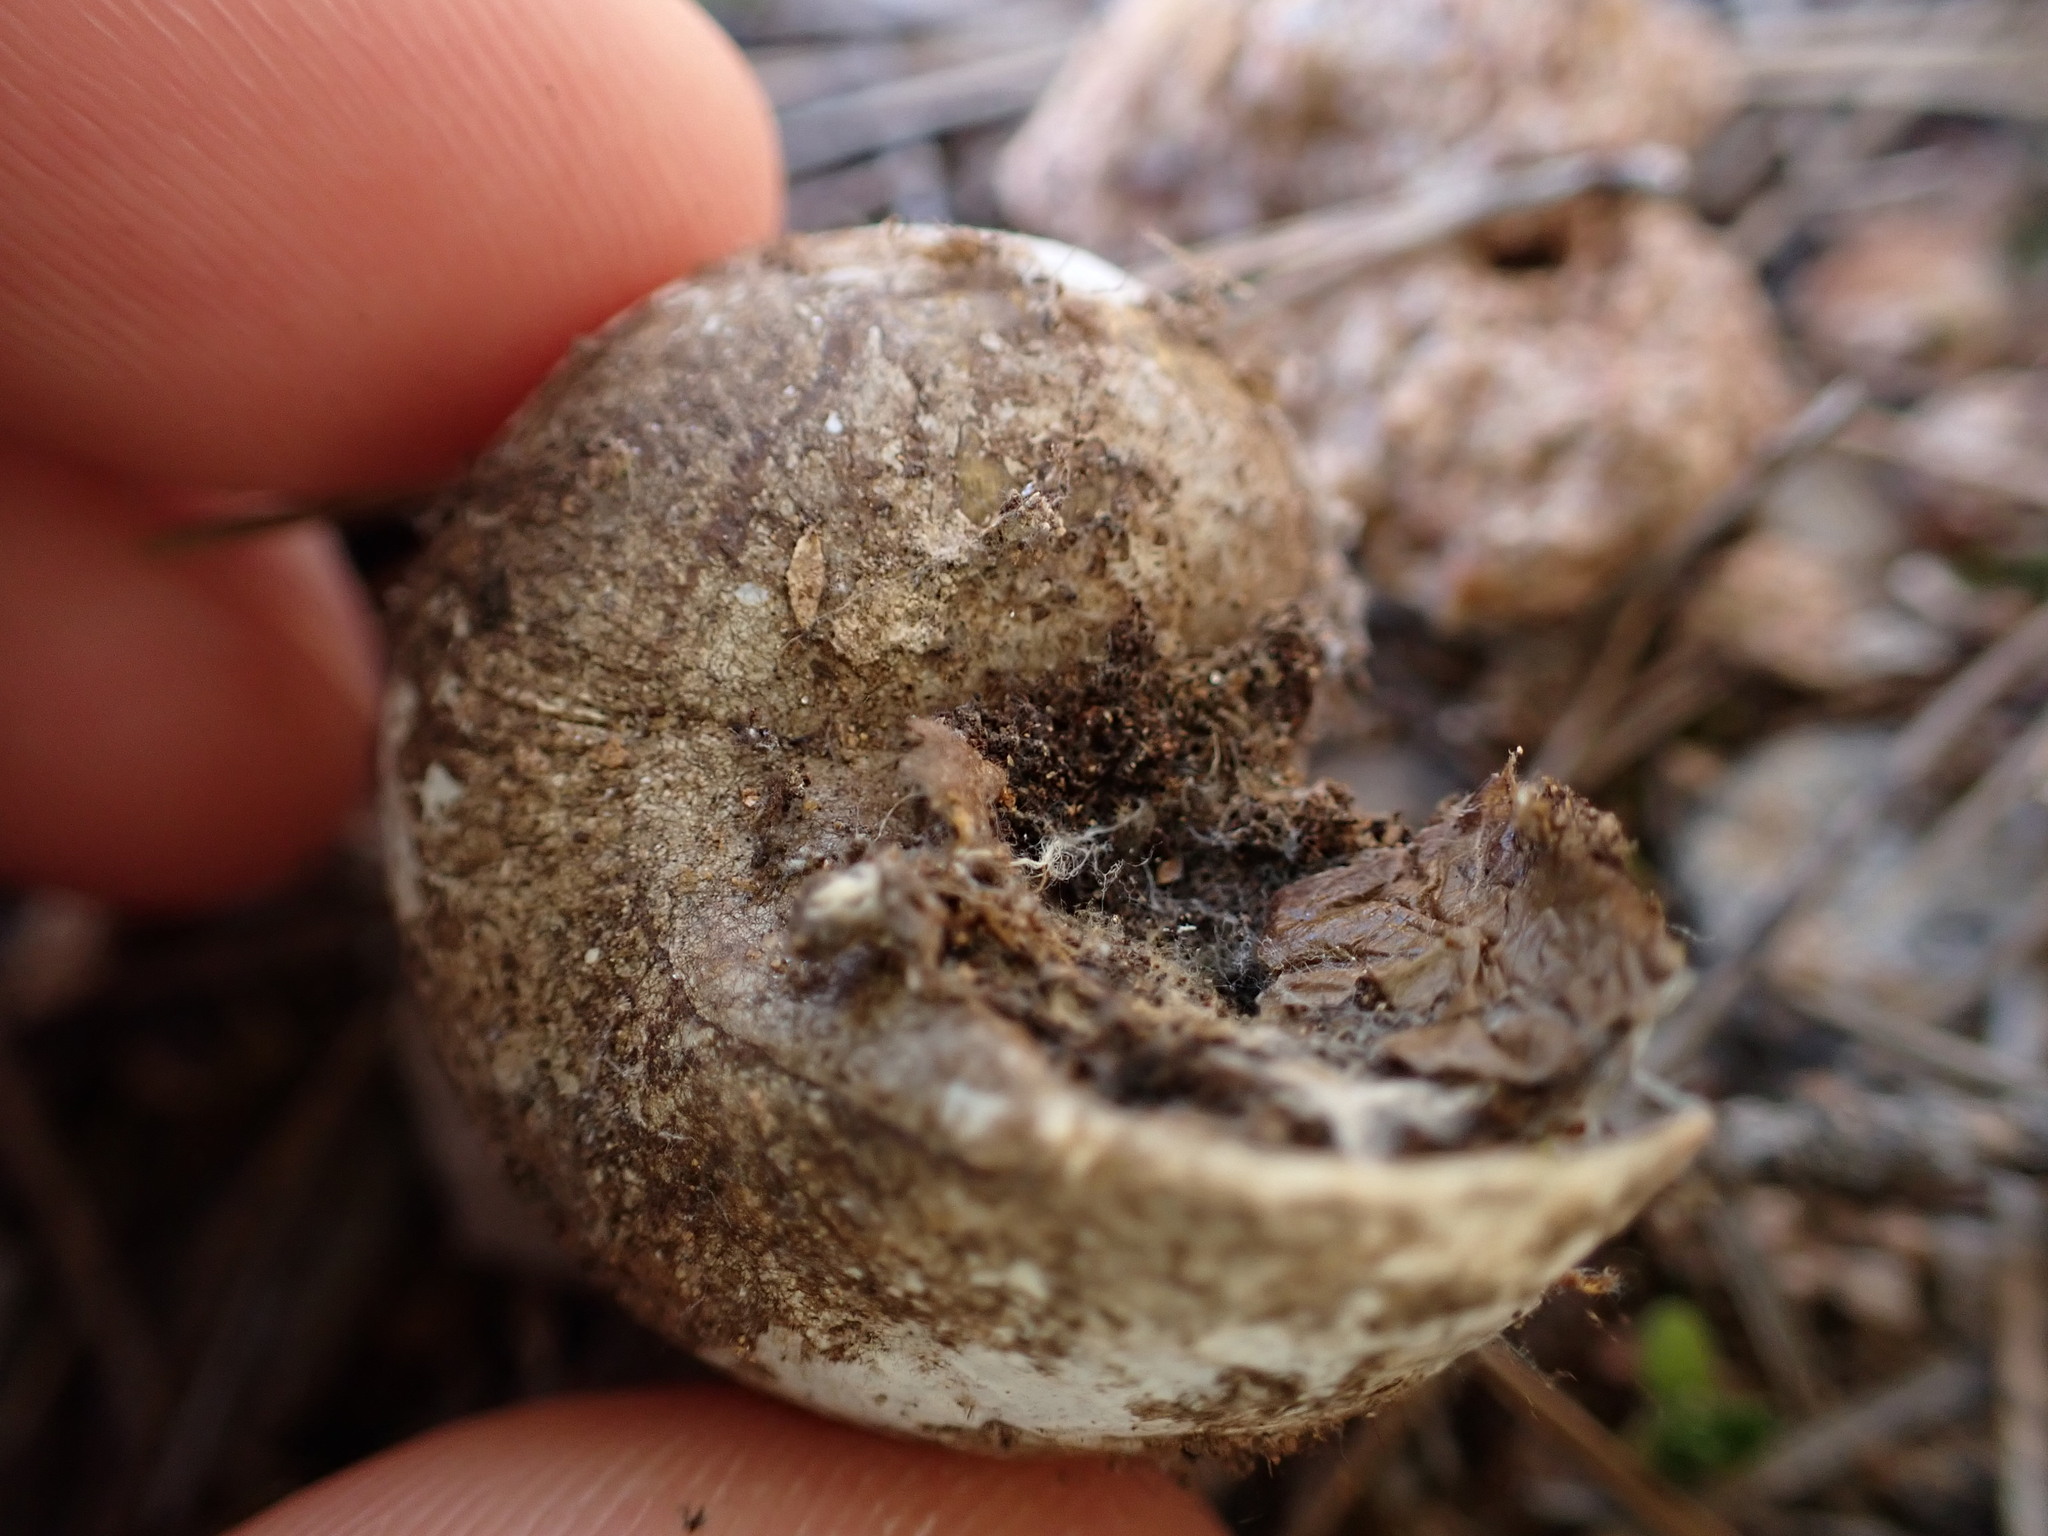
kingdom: Animalia
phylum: Mollusca
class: Gastropoda
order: Stylommatophora
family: Helicidae
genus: Cornu
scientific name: Cornu aspersum
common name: Brown garden snail
